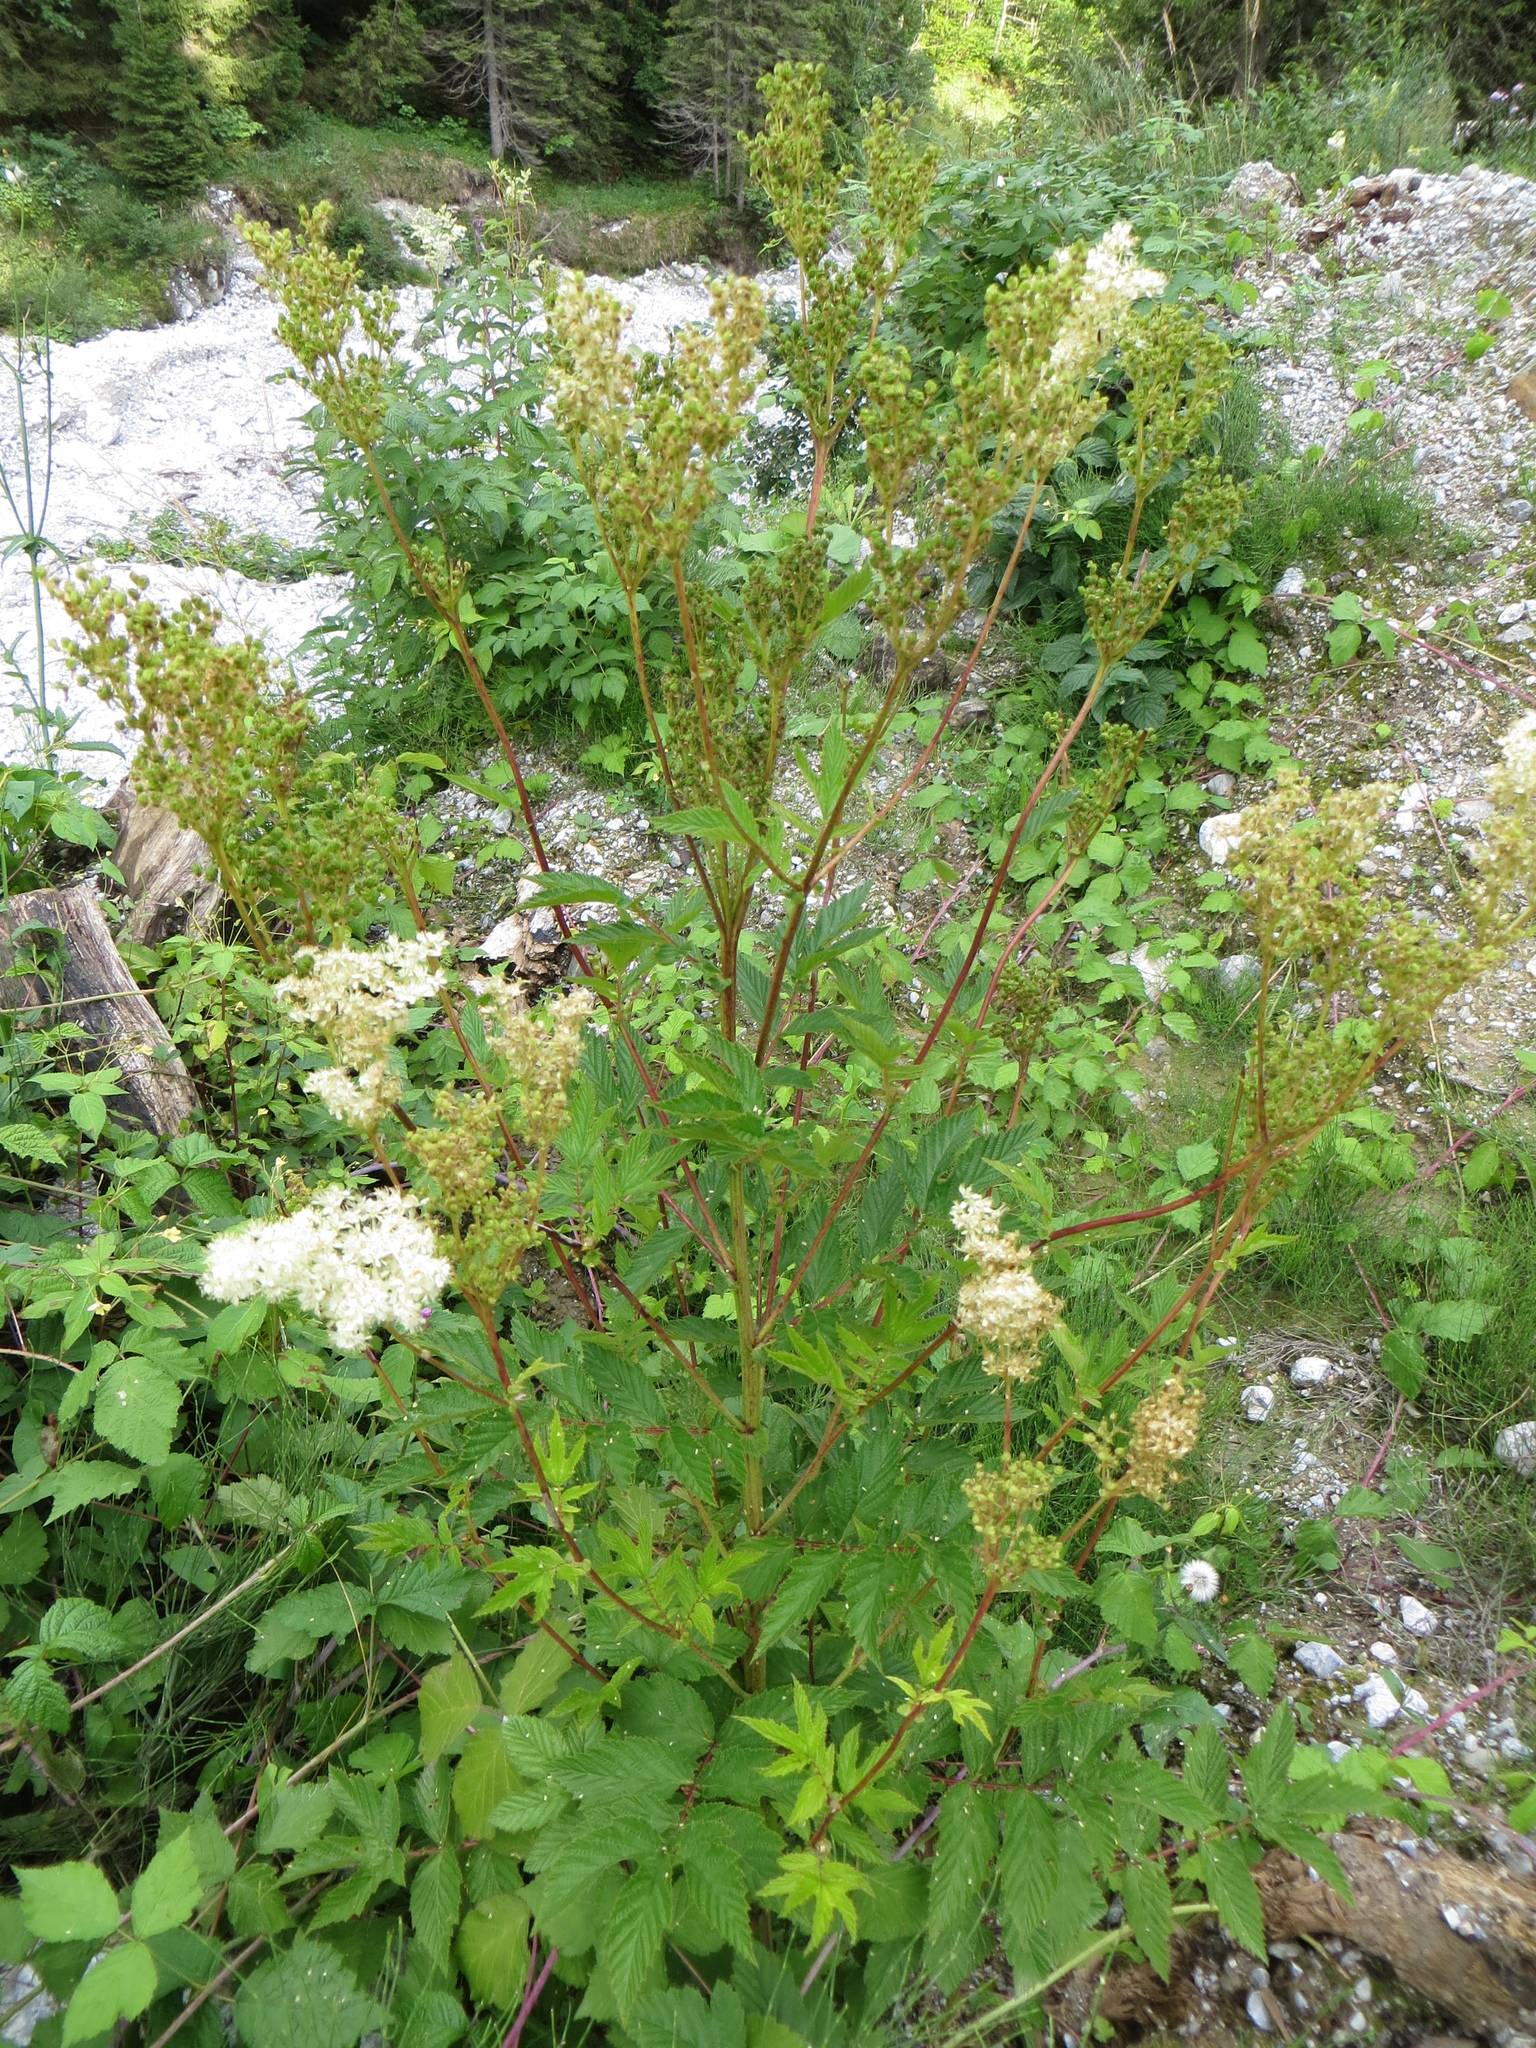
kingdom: Plantae
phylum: Tracheophyta
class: Magnoliopsida
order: Rosales
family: Rosaceae
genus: Filipendula
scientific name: Filipendula ulmaria
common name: Meadowsweet
